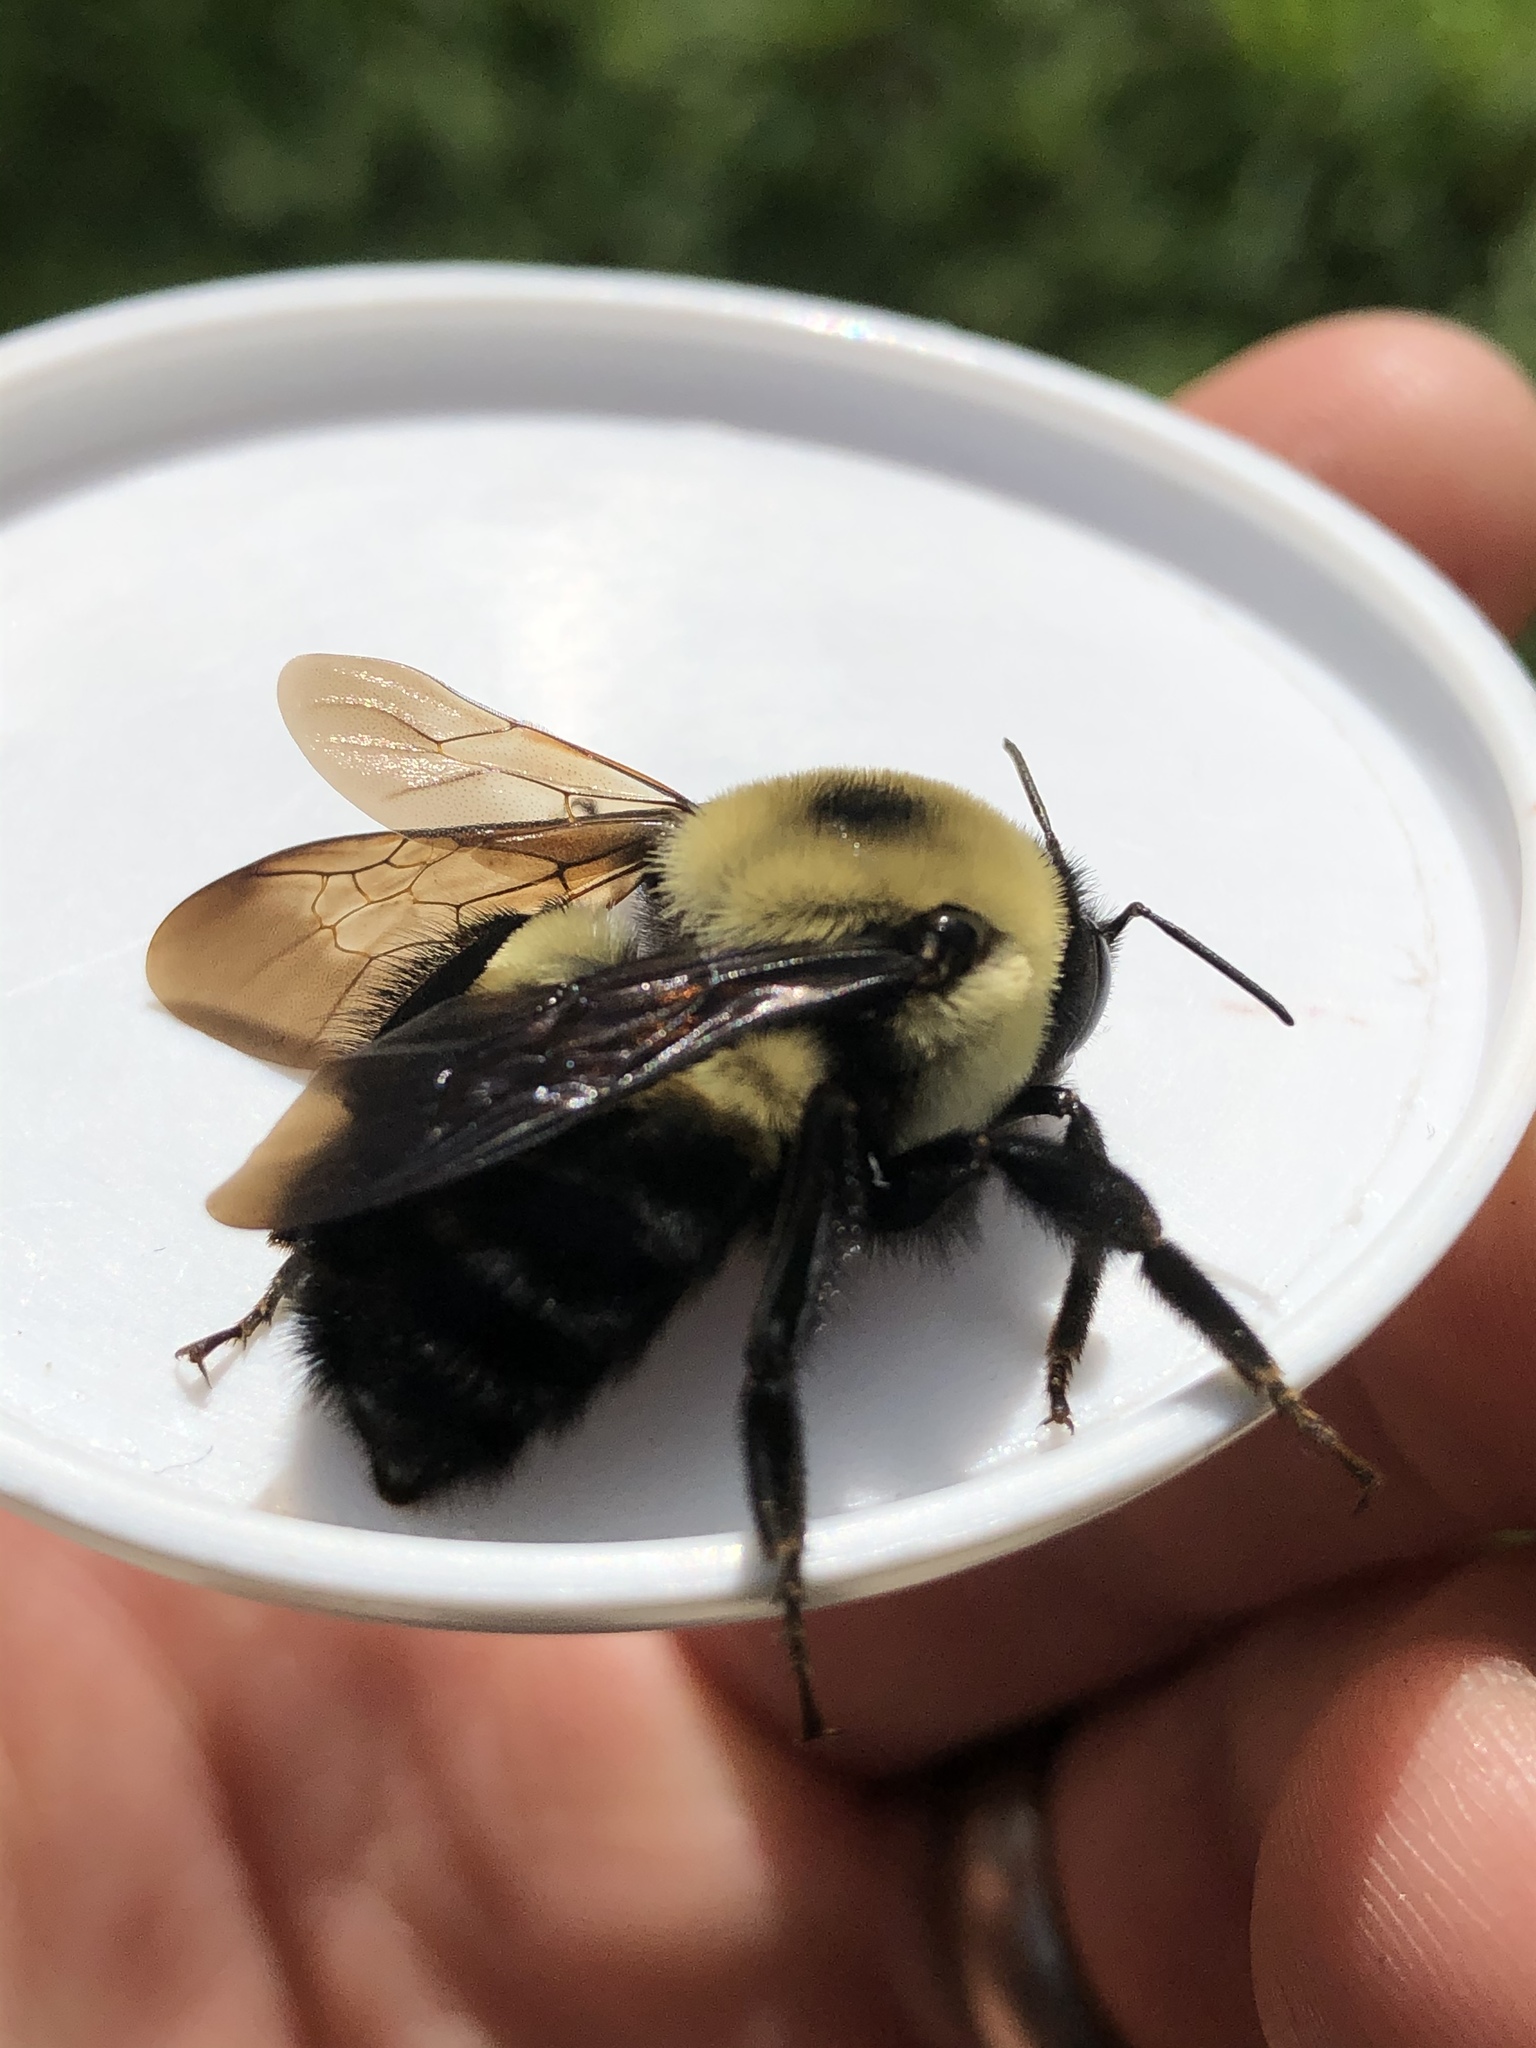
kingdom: Animalia
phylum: Arthropoda
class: Insecta
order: Hymenoptera
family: Apidae
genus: Bombus
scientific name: Bombus griseocollis
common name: Brown-belted bumble bee
